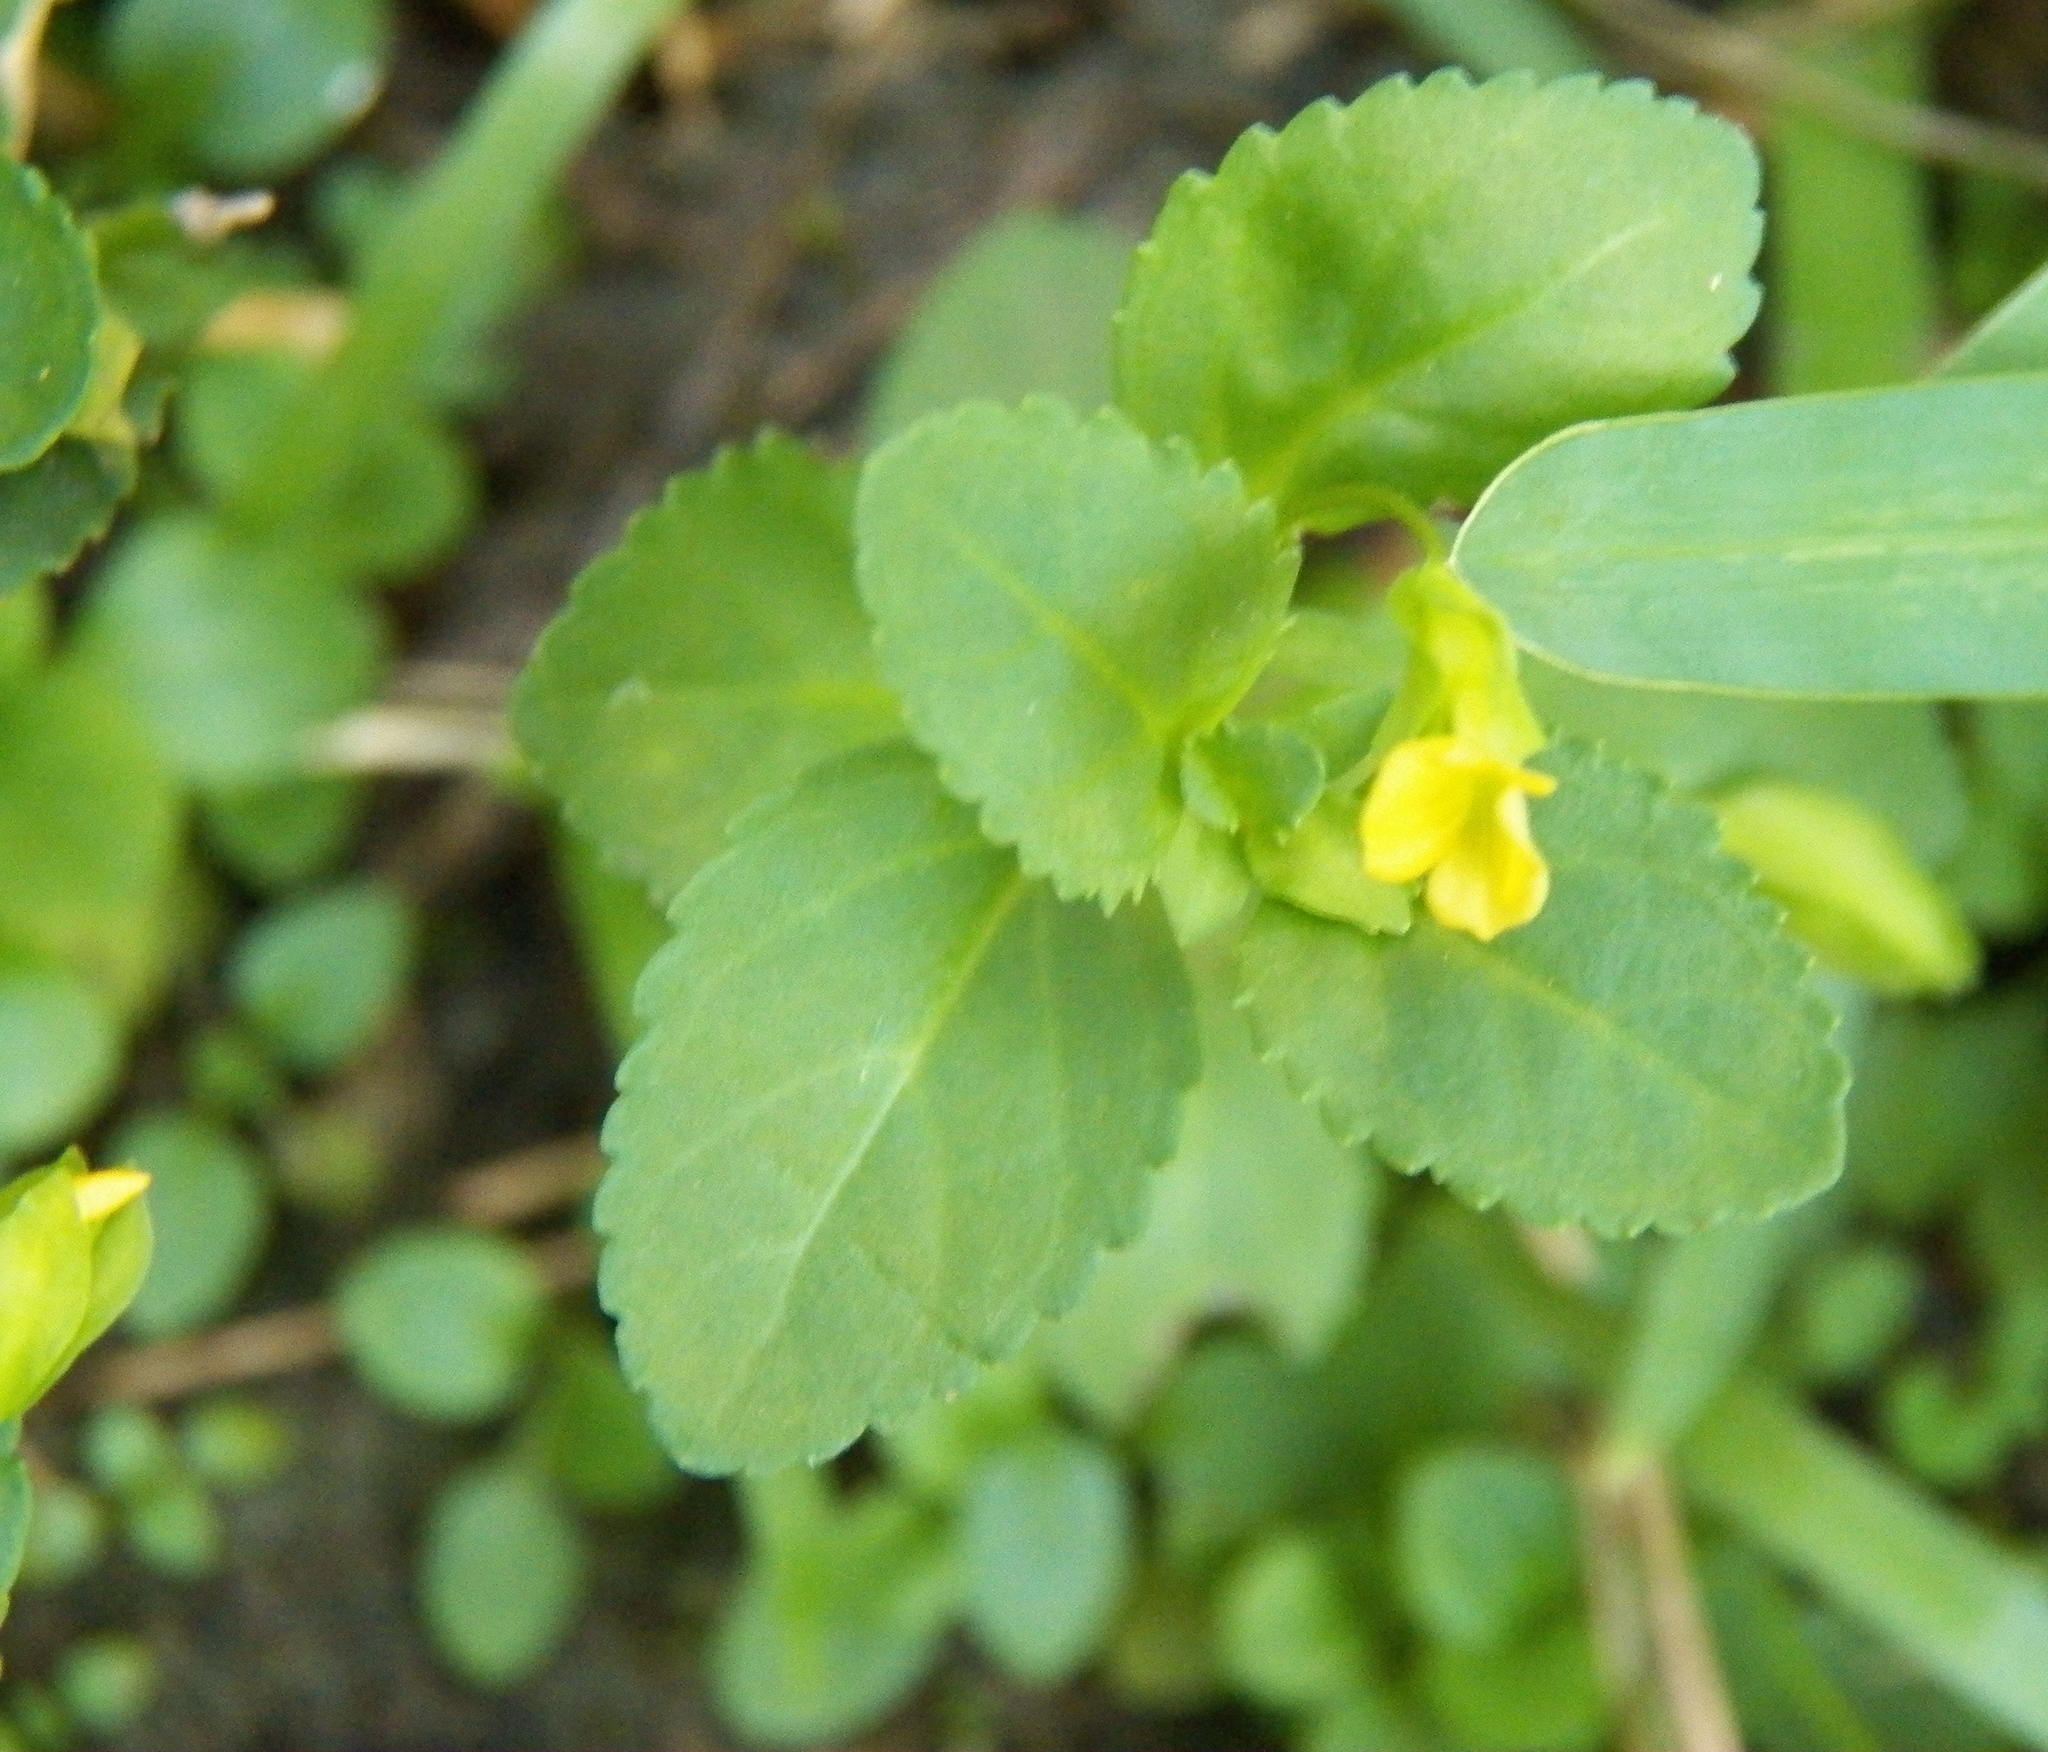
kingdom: Plantae
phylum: Tracheophyta
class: Magnoliopsida
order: Lamiales
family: Plantaginaceae
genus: Mecardonia
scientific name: Mecardonia procumbens
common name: Baby jump-up
